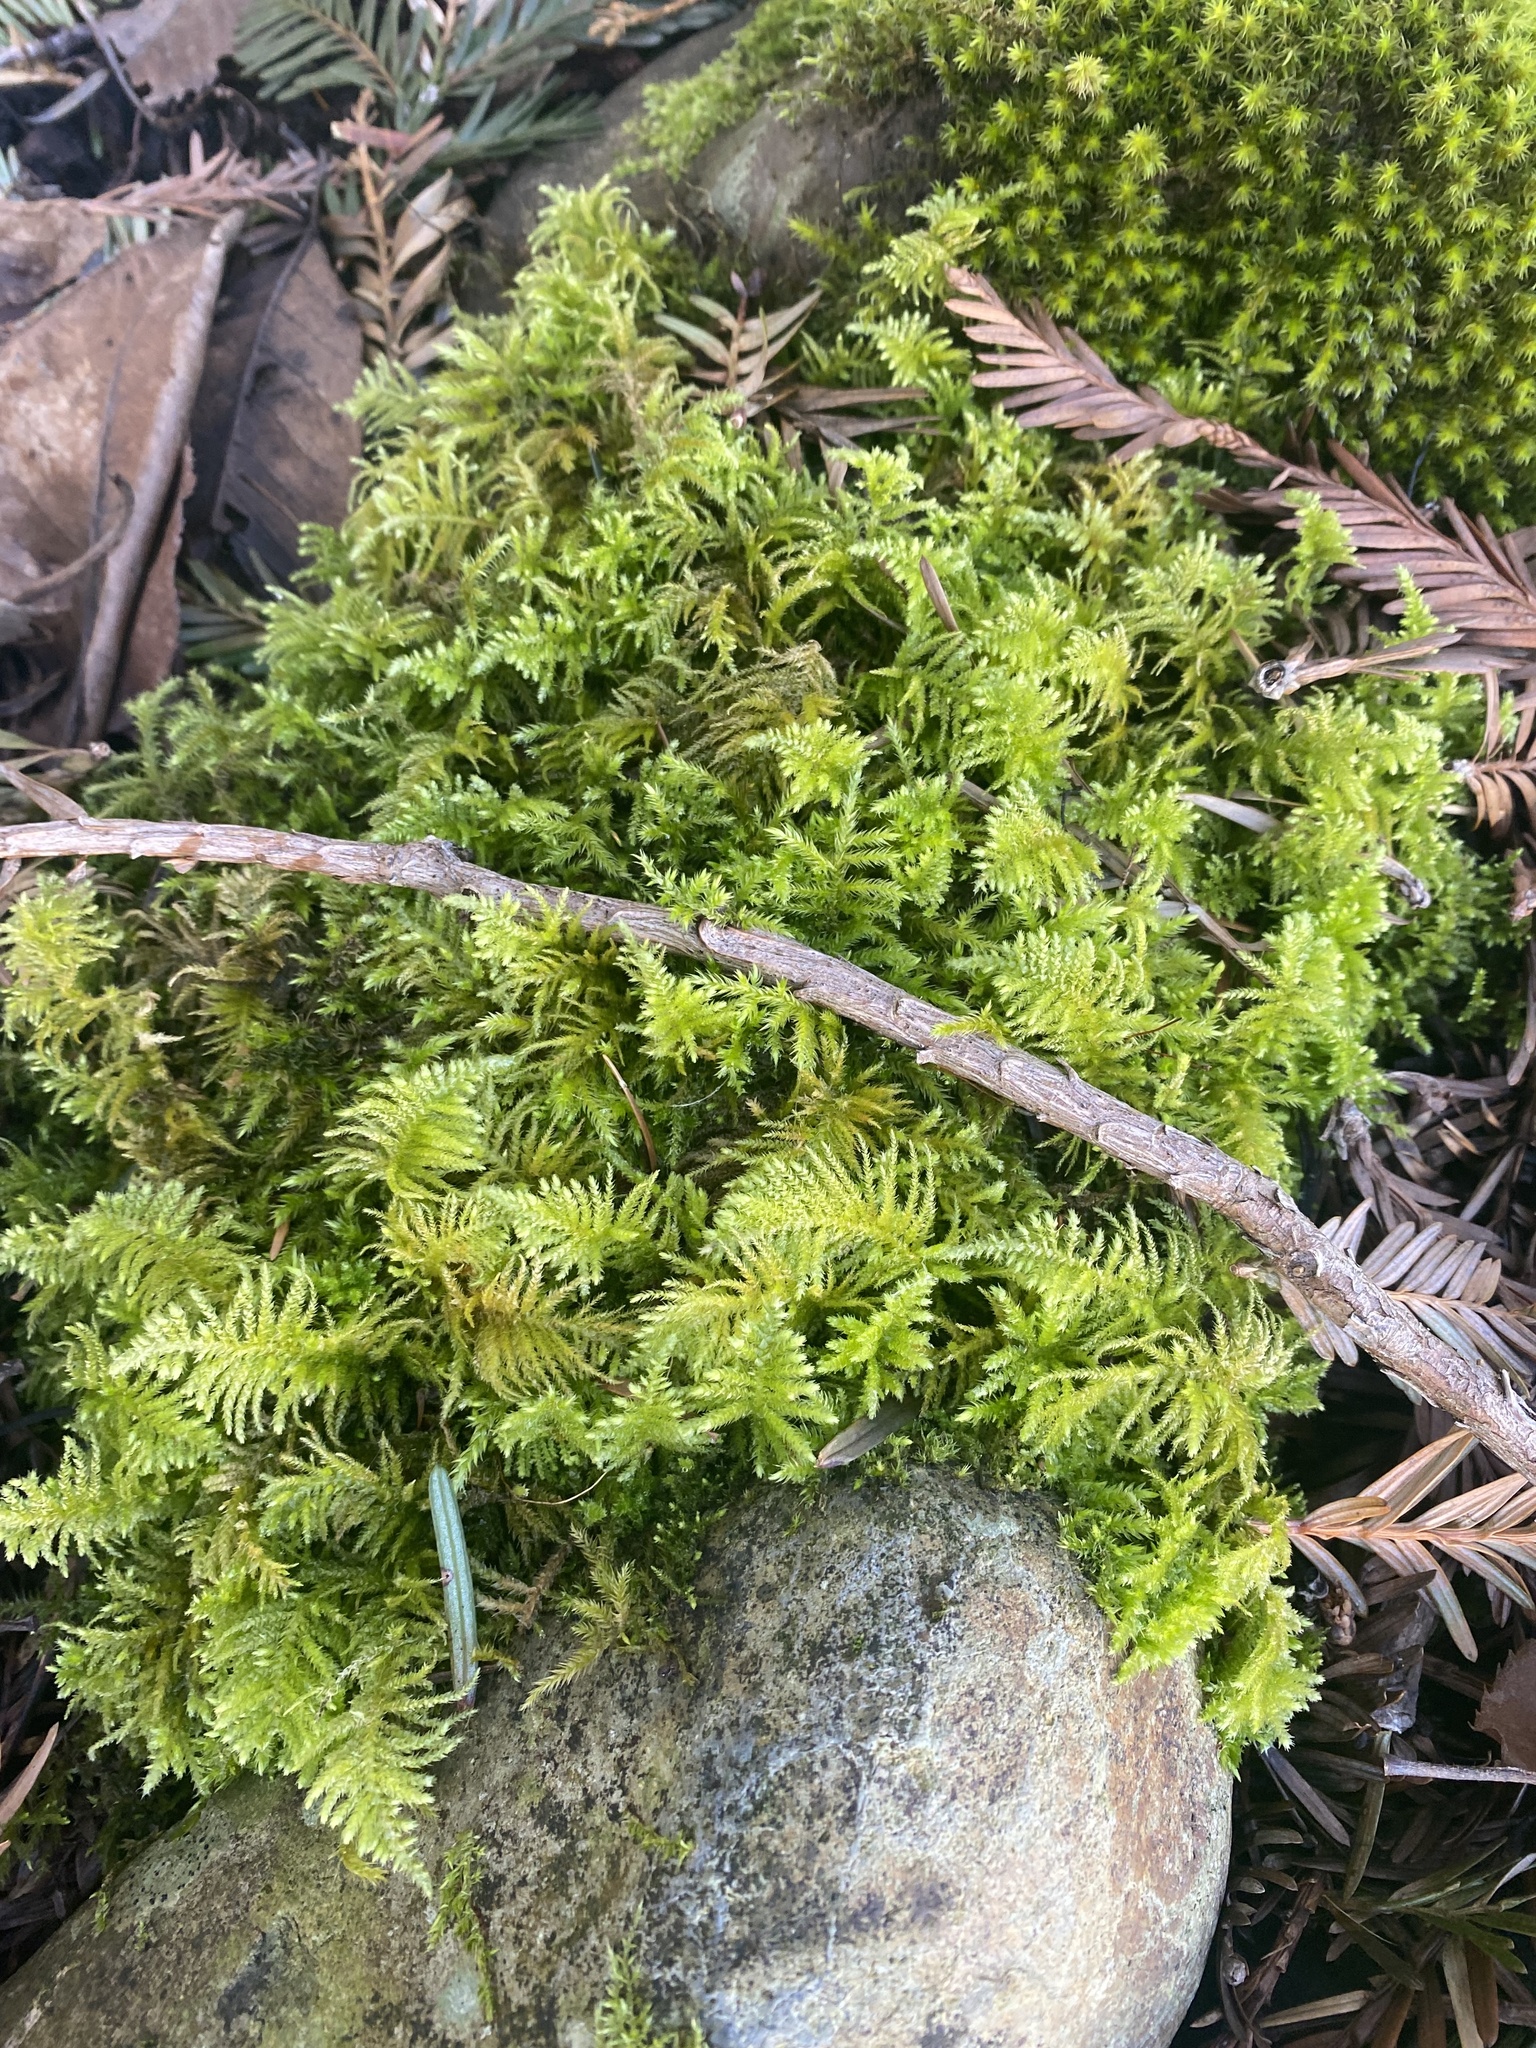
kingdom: Plantae
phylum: Bryophyta
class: Bryopsida
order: Hypnales
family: Brachytheciaceae
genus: Kindbergia
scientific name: Kindbergia oregana
